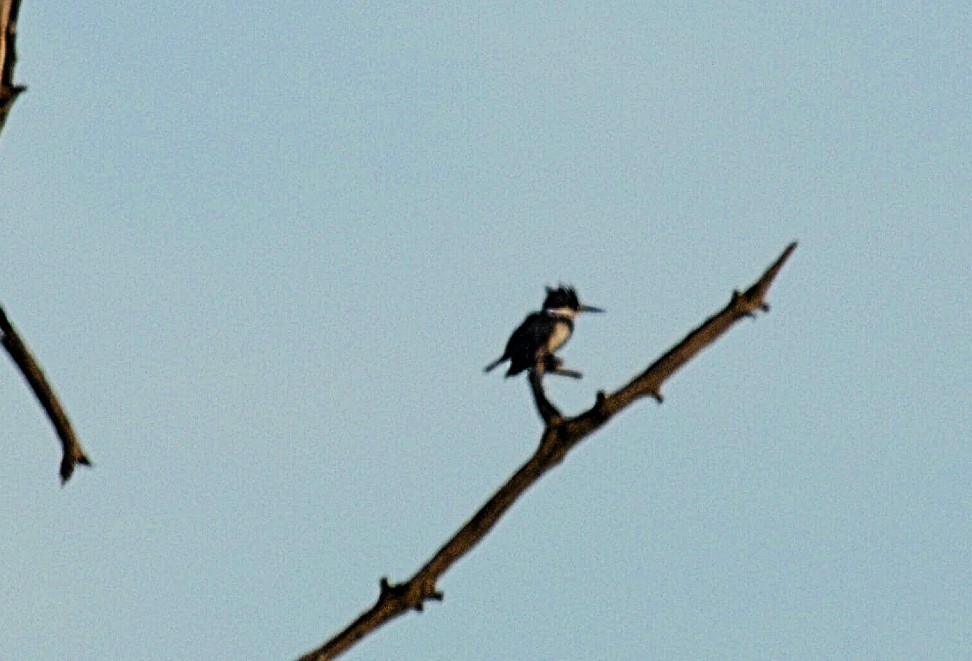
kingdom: Animalia
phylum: Chordata
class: Aves
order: Coraciiformes
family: Alcedinidae
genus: Megaceryle
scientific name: Megaceryle alcyon
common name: Belted kingfisher
